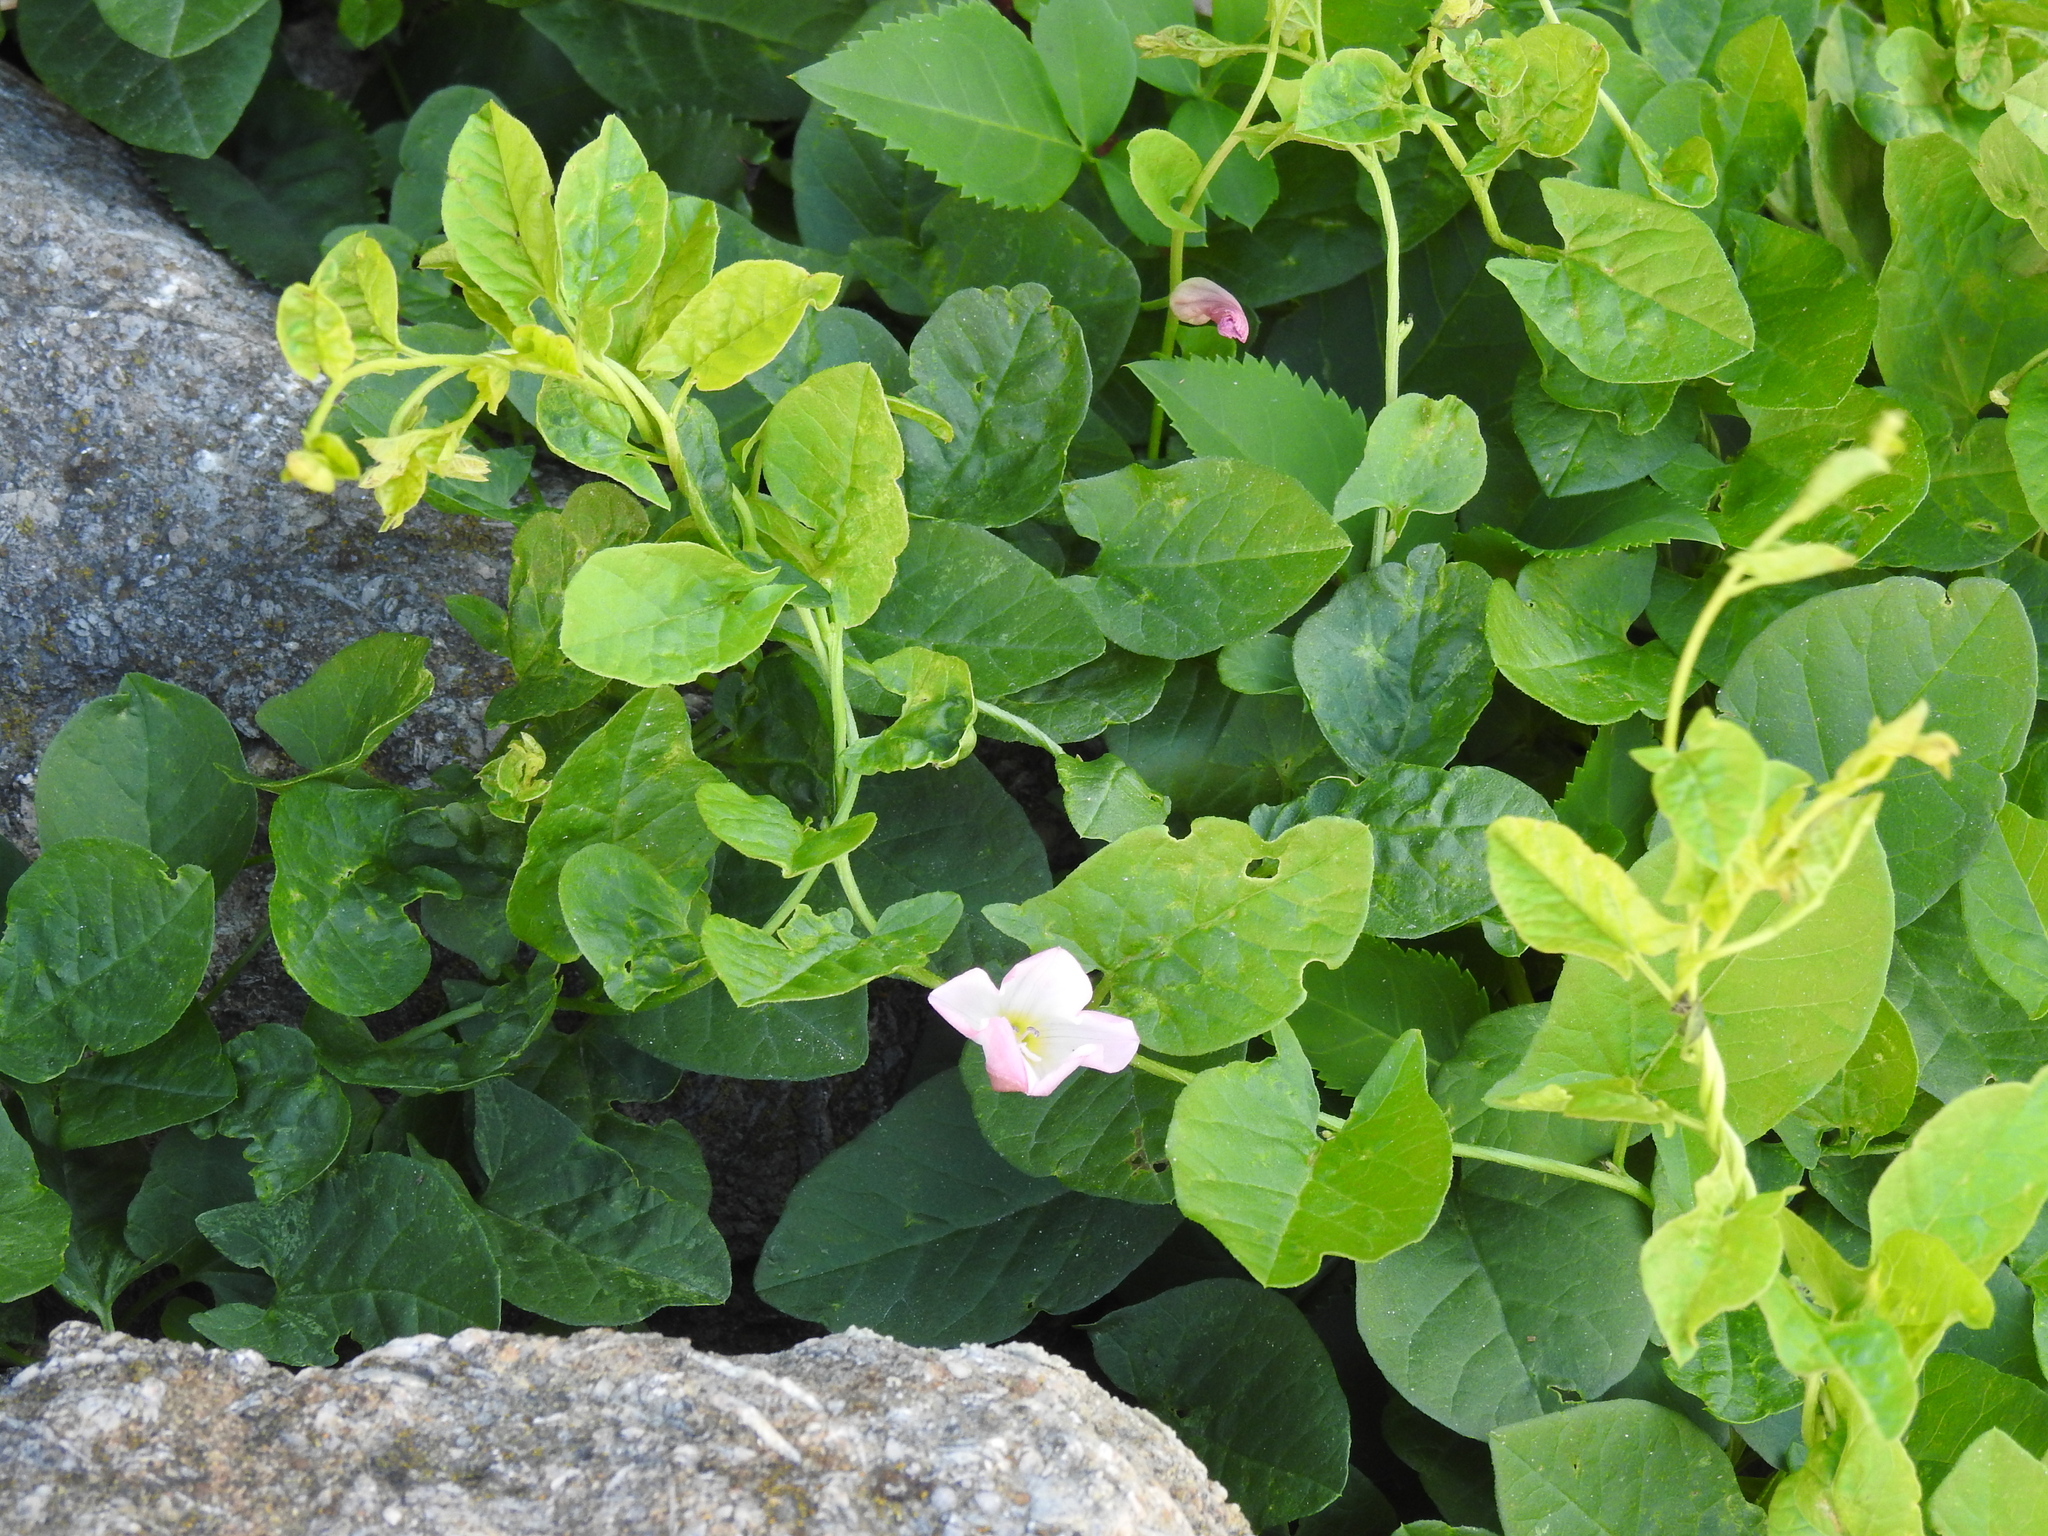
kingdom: Plantae
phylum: Tracheophyta
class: Magnoliopsida
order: Solanales
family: Convolvulaceae
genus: Convolvulus
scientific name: Convolvulus arvensis
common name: Field bindweed
